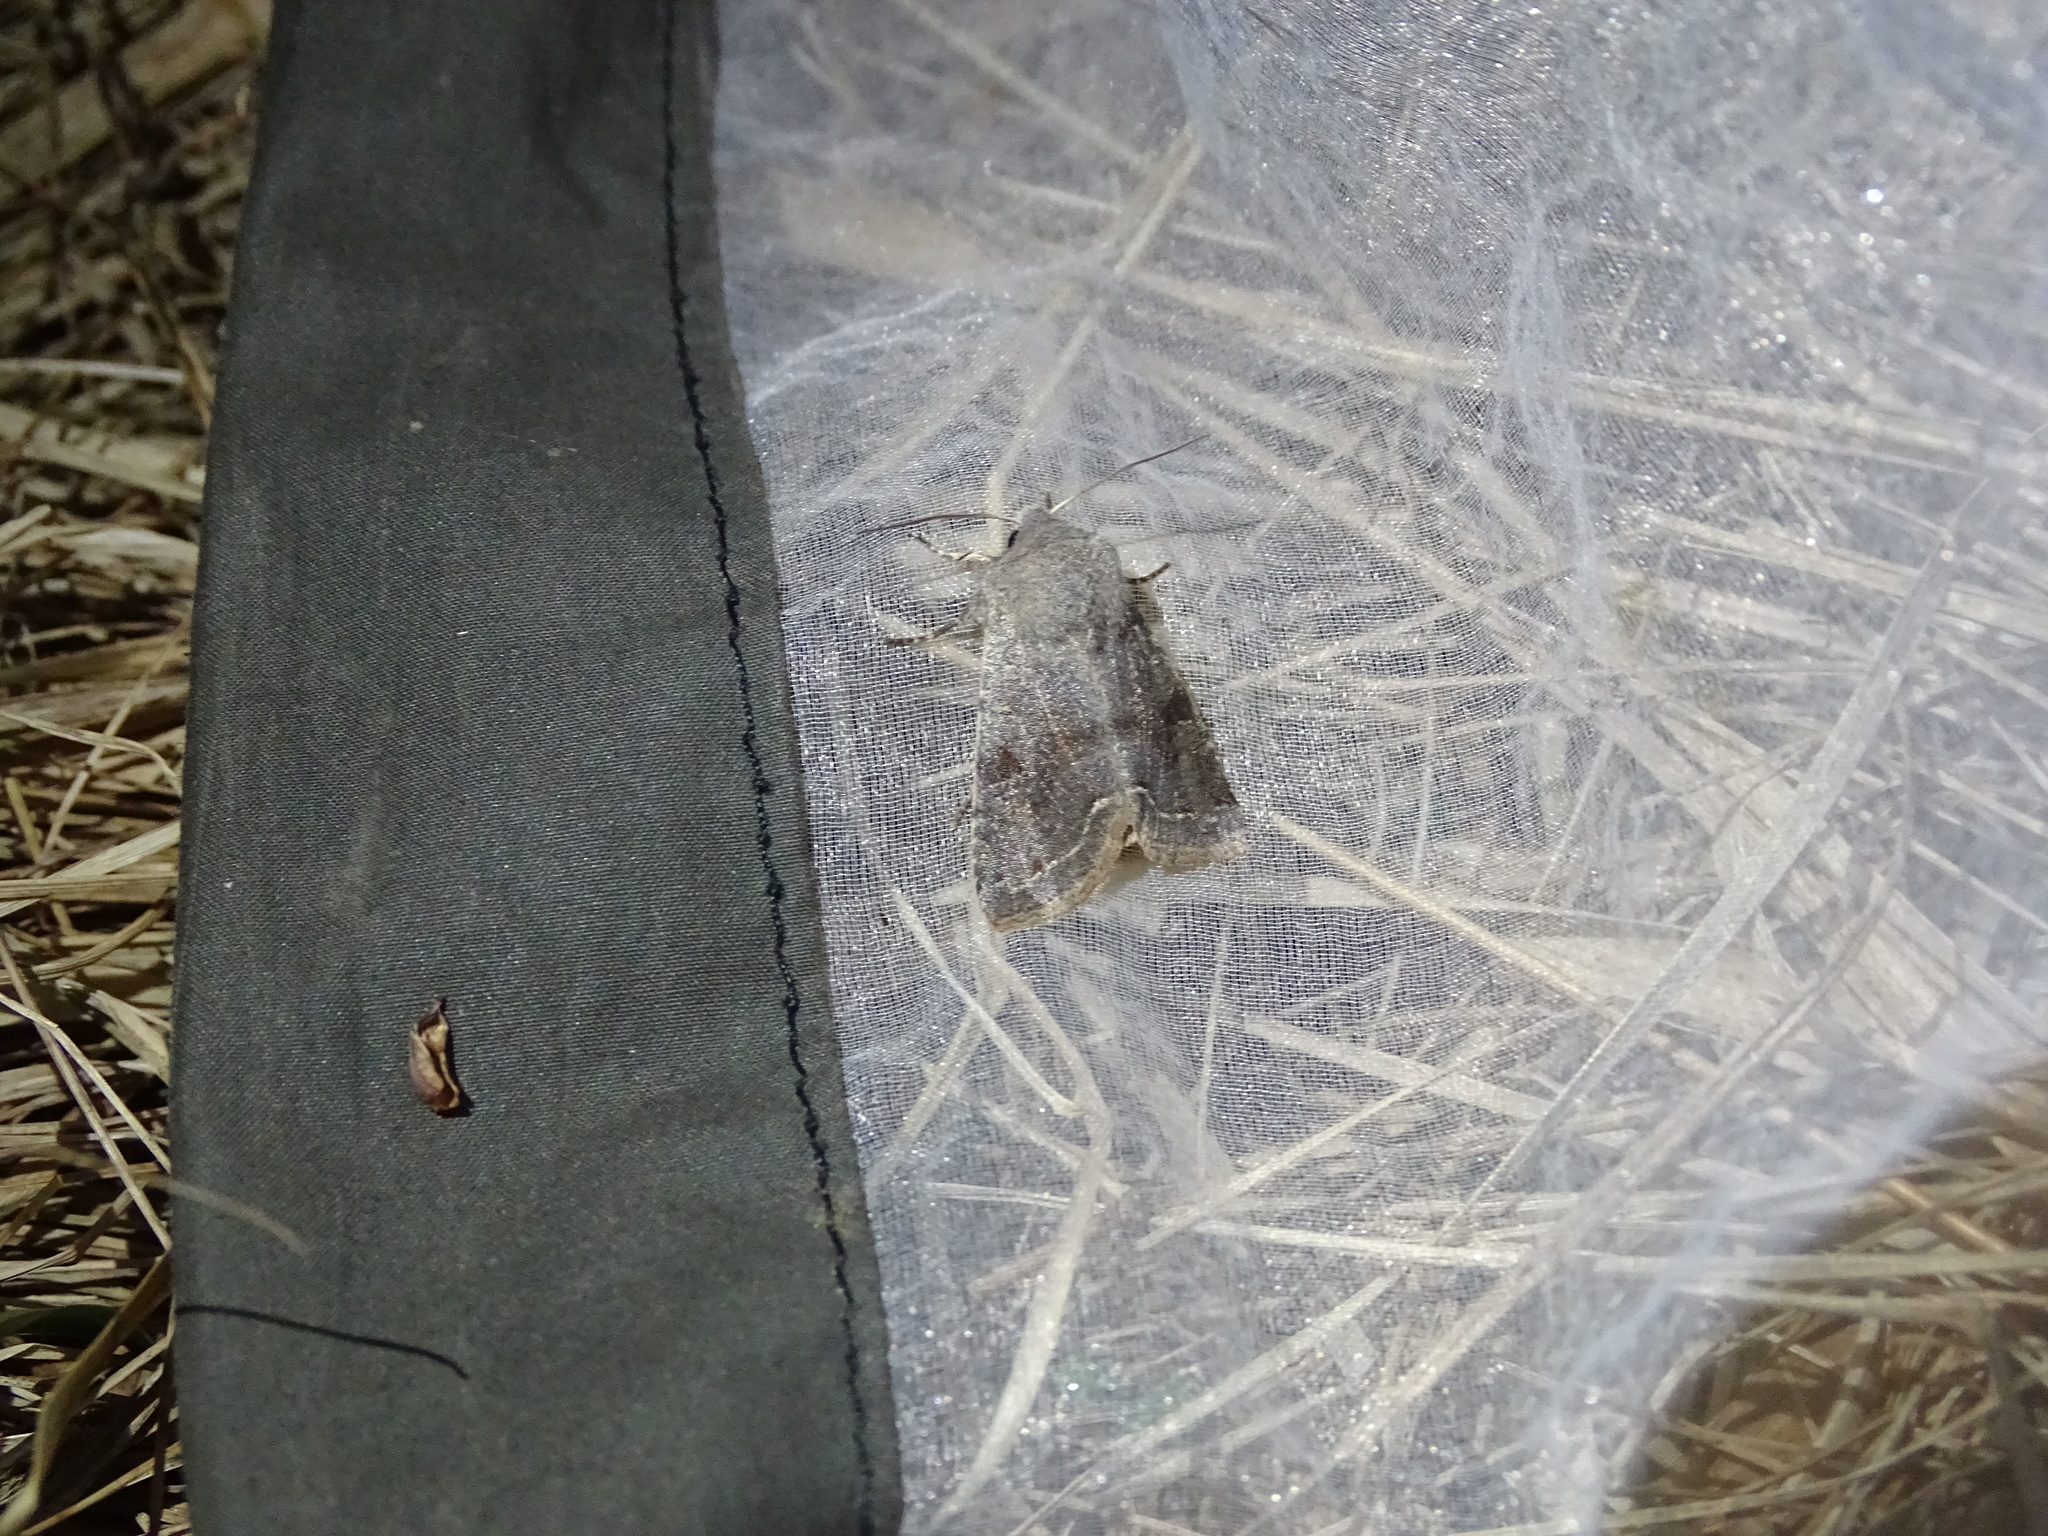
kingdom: Animalia
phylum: Arthropoda
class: Insecta
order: Lepidoptera
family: Noctuidae
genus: Orthosia
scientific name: Orthosia incerta
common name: Clouded drab
